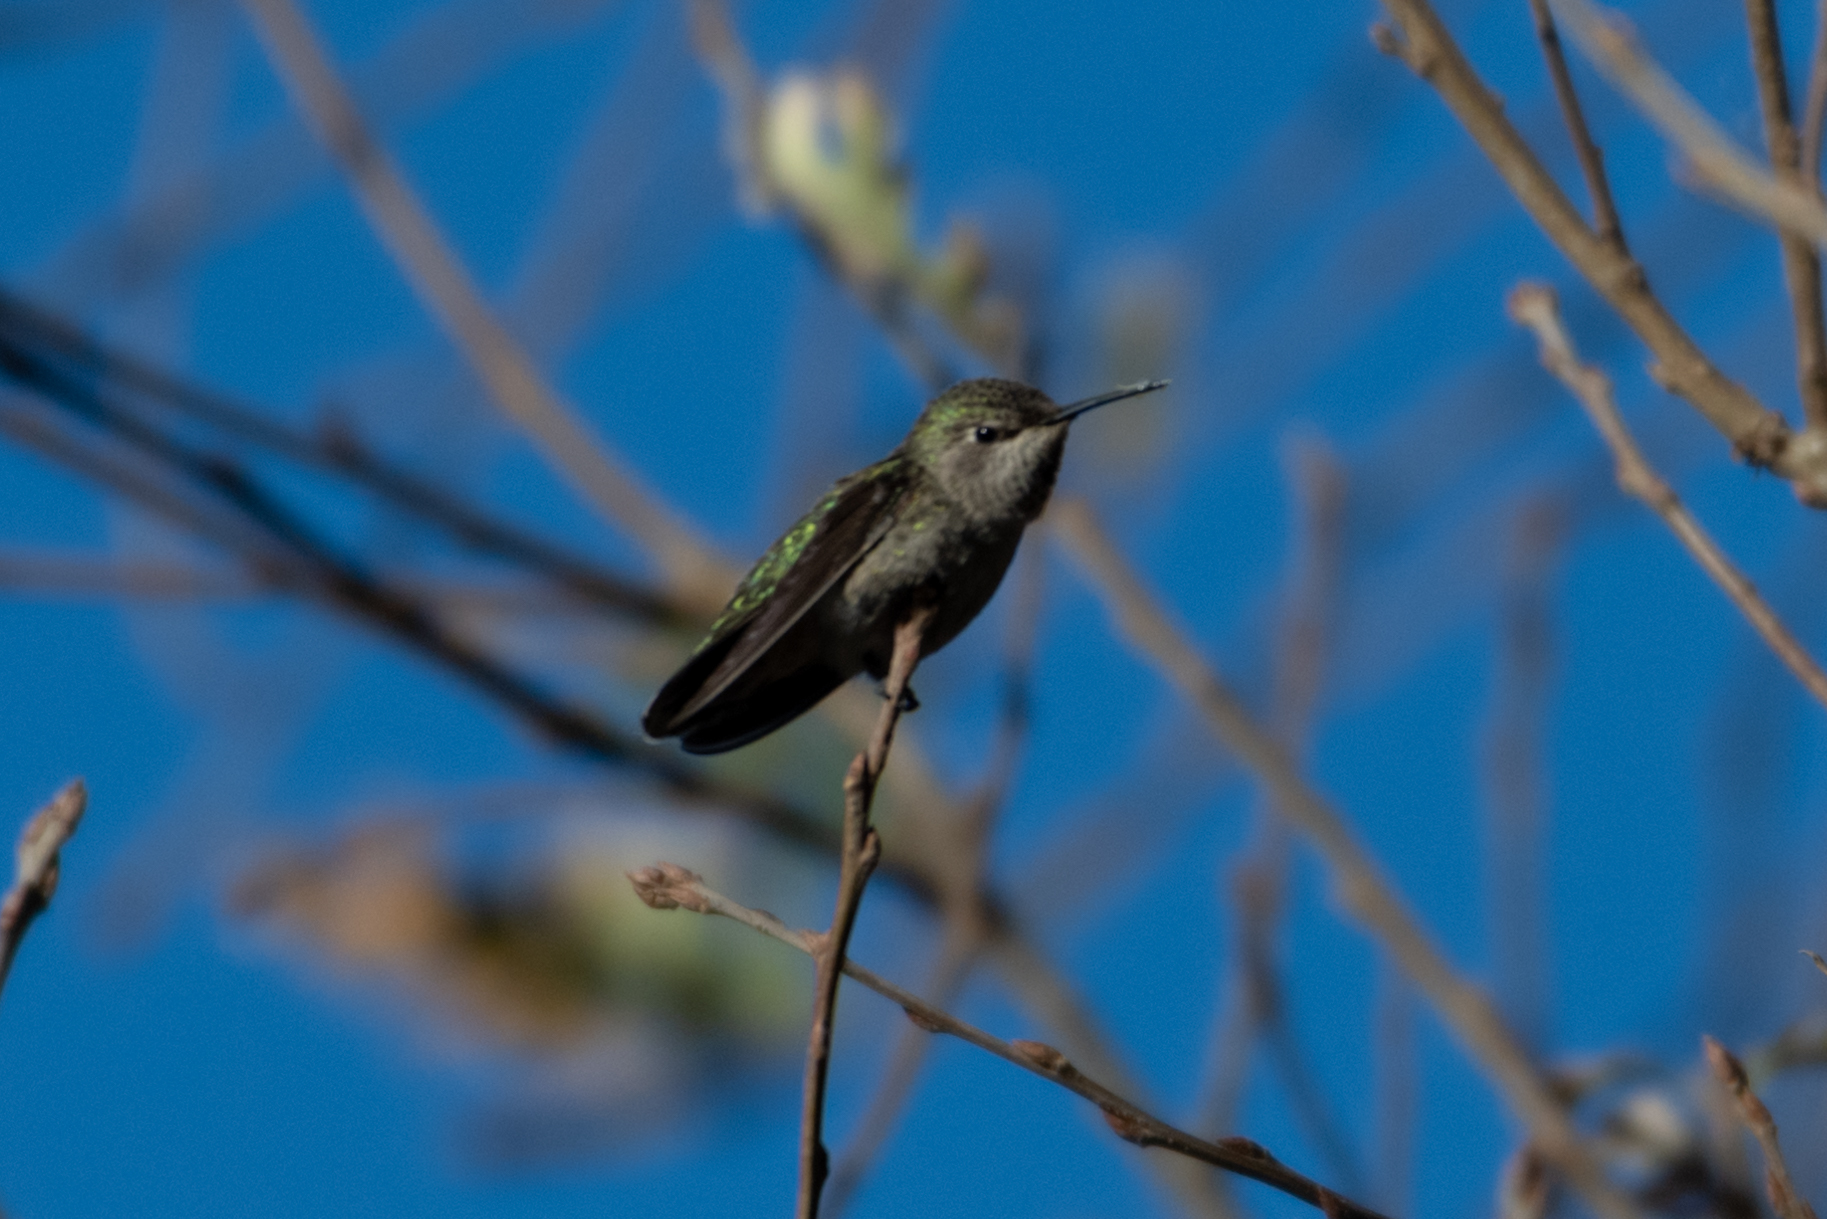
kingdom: Animalia
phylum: Chordata
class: Aves
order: Apodiformes
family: Trochilidae
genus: Calypte
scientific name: Calypte anna
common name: Anna's hummingbird
